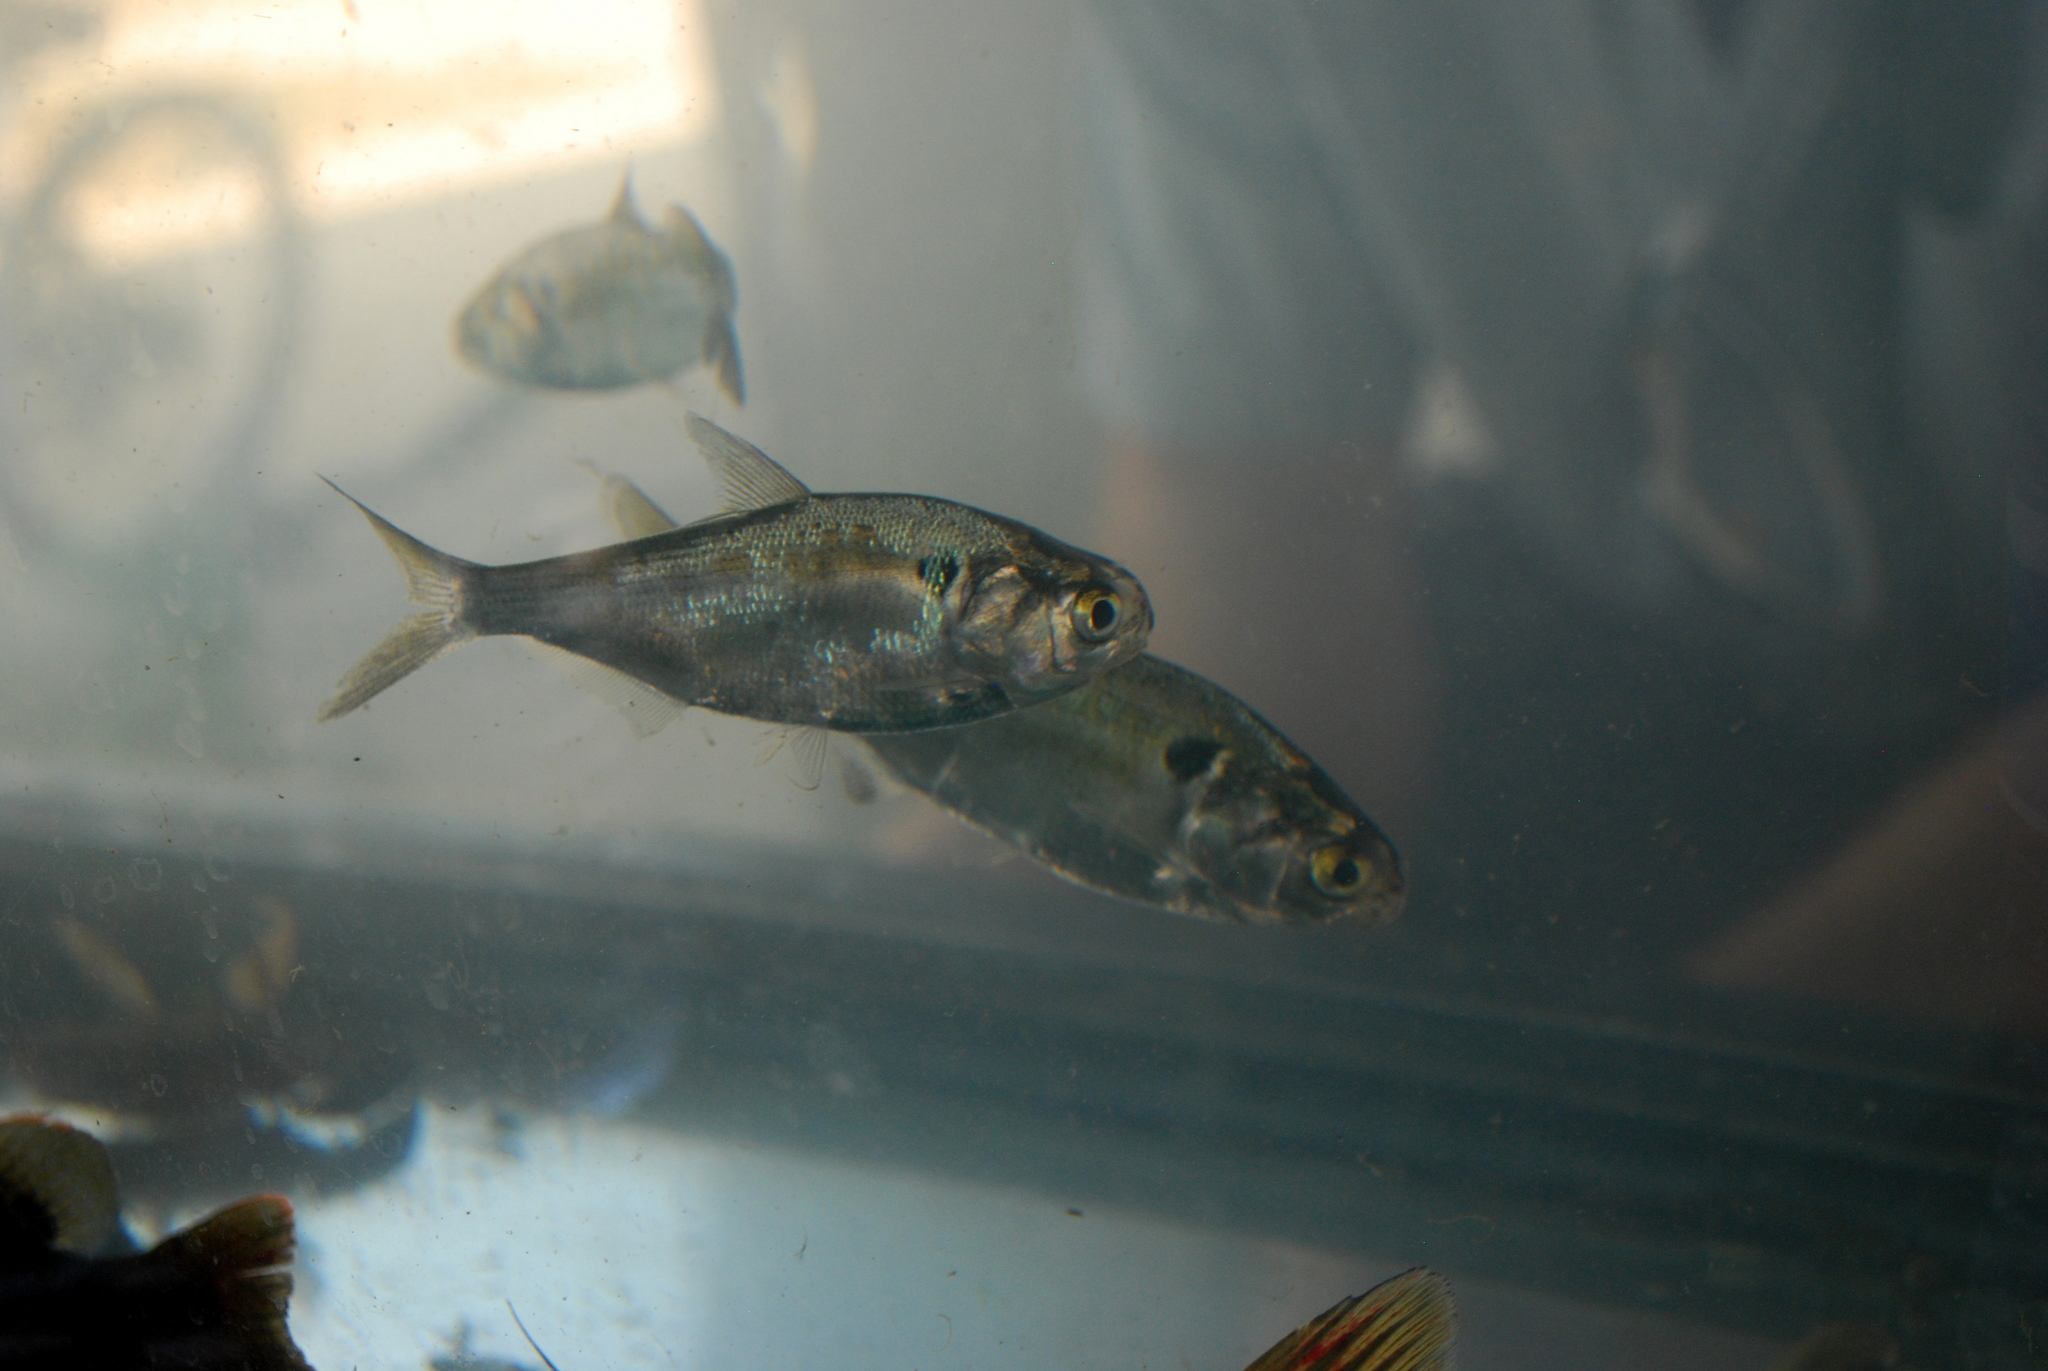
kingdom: Animalia
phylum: Chordata
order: Clupeiformes
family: Clupeidae
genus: Dorosoma
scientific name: Dorosoma cepedianum
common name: Gizzard shad
